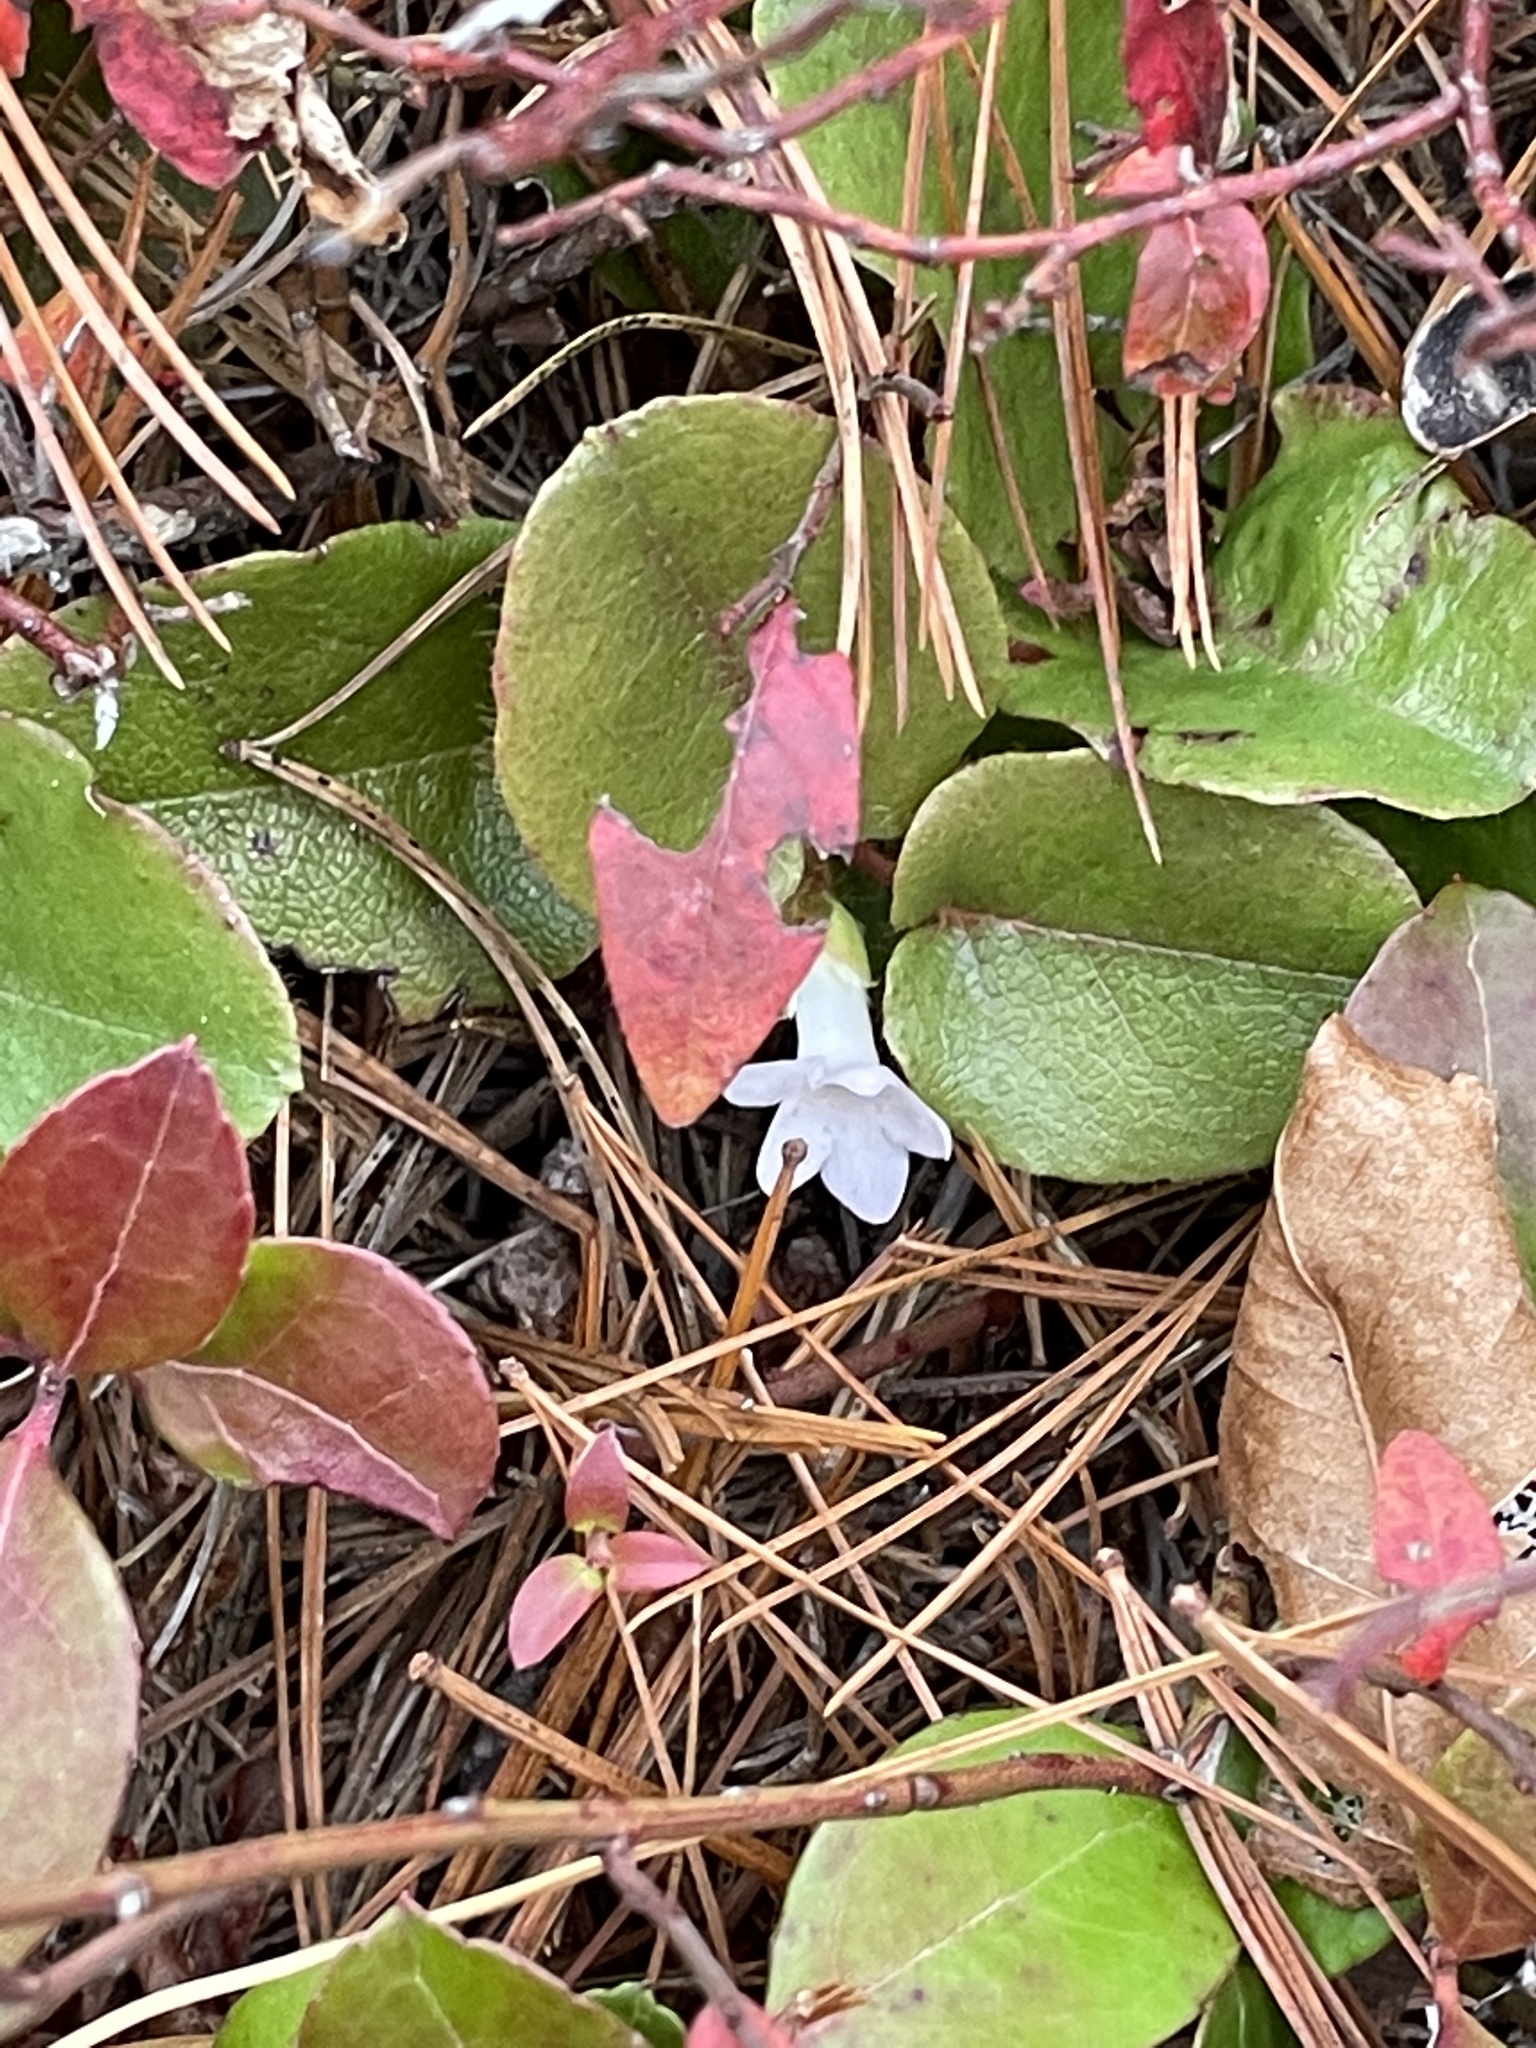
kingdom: Plantae
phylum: Tracheophyta
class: Magnoliopsida
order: Ericales
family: Ericaceae
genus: Epigaea
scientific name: Epigaea repens
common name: Gravelroot
